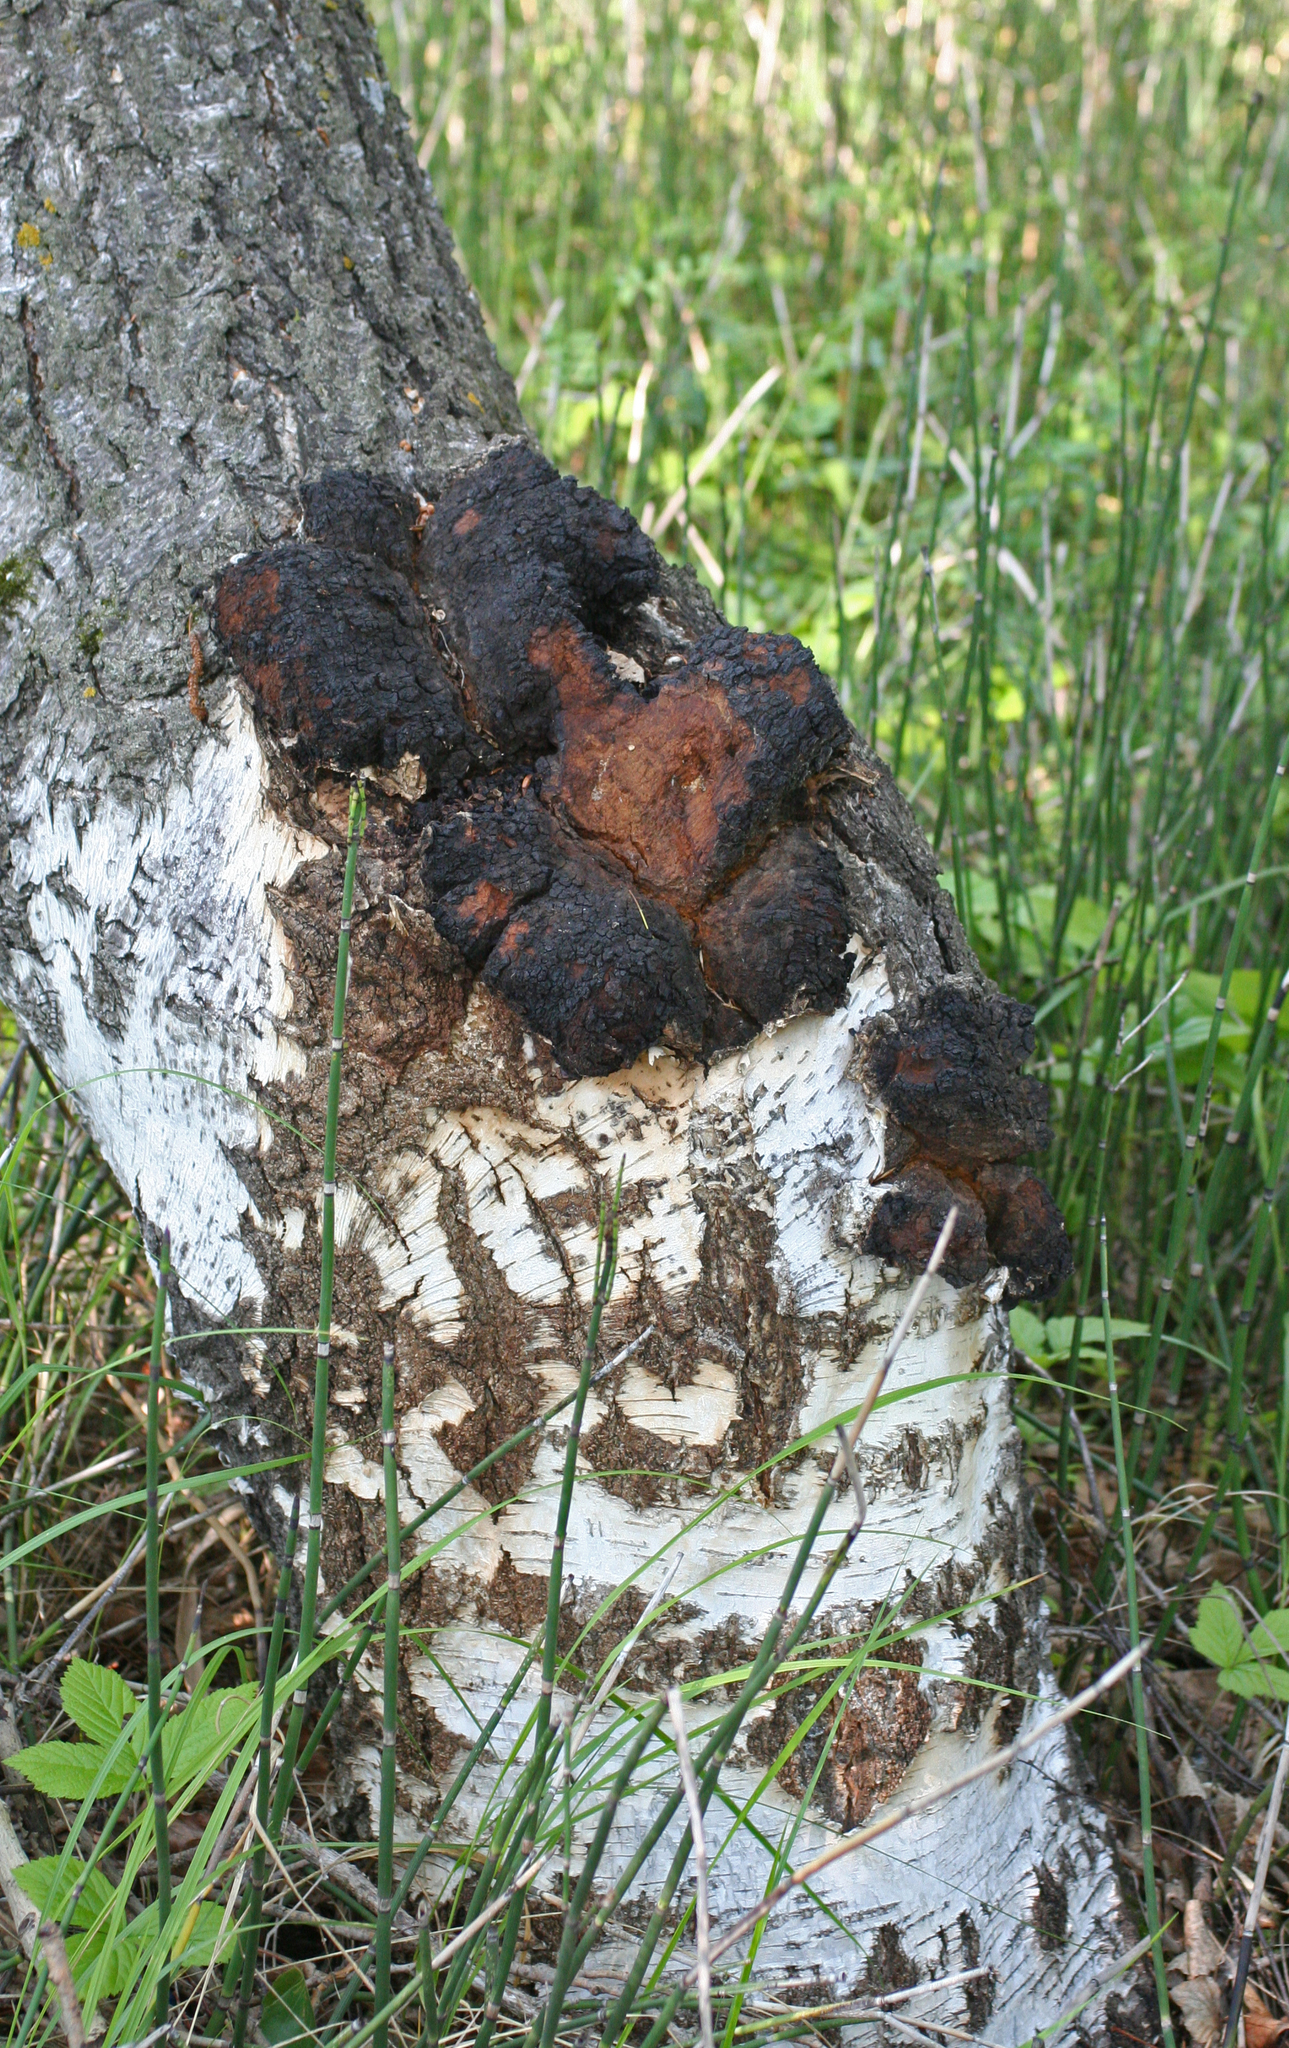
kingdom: Fungi
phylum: Basidiomycota
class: Agaricomycetes
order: Hymenochaetales
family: Hymenochaetaceae
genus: Inonotus
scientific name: Inonotus obliquus
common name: Chaga
